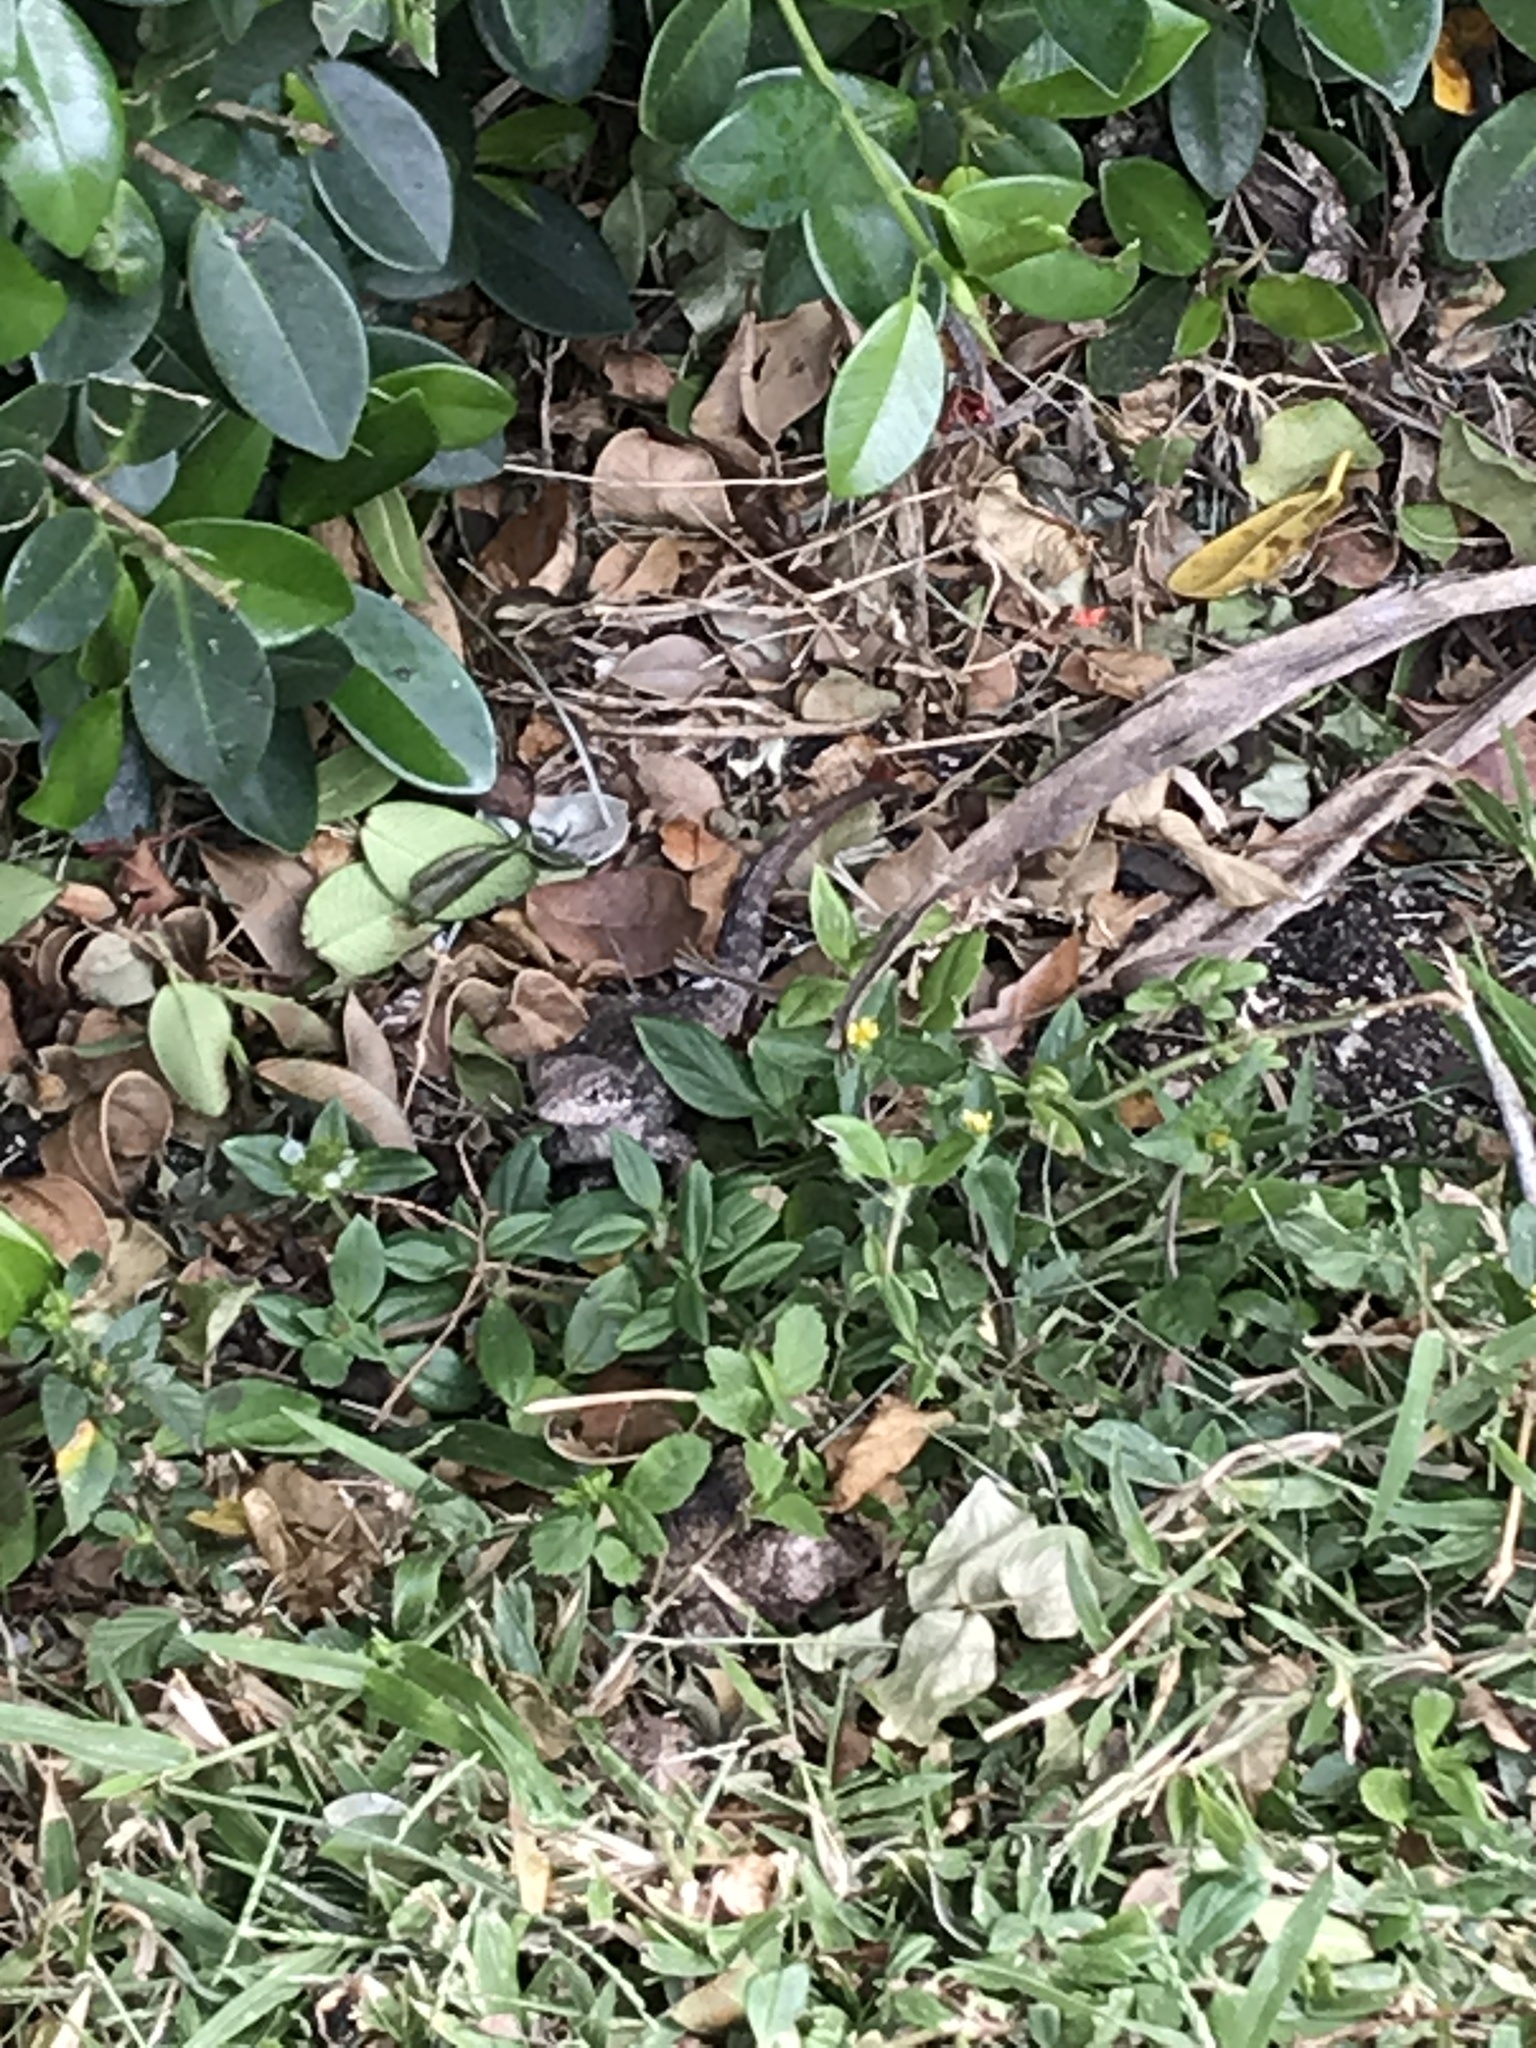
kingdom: Animalia
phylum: Chordata
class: Squamata
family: Leiocephalidae
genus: Leiocephalus
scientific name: Leiocephalus carinatus
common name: Northern curly-tailed lizard
